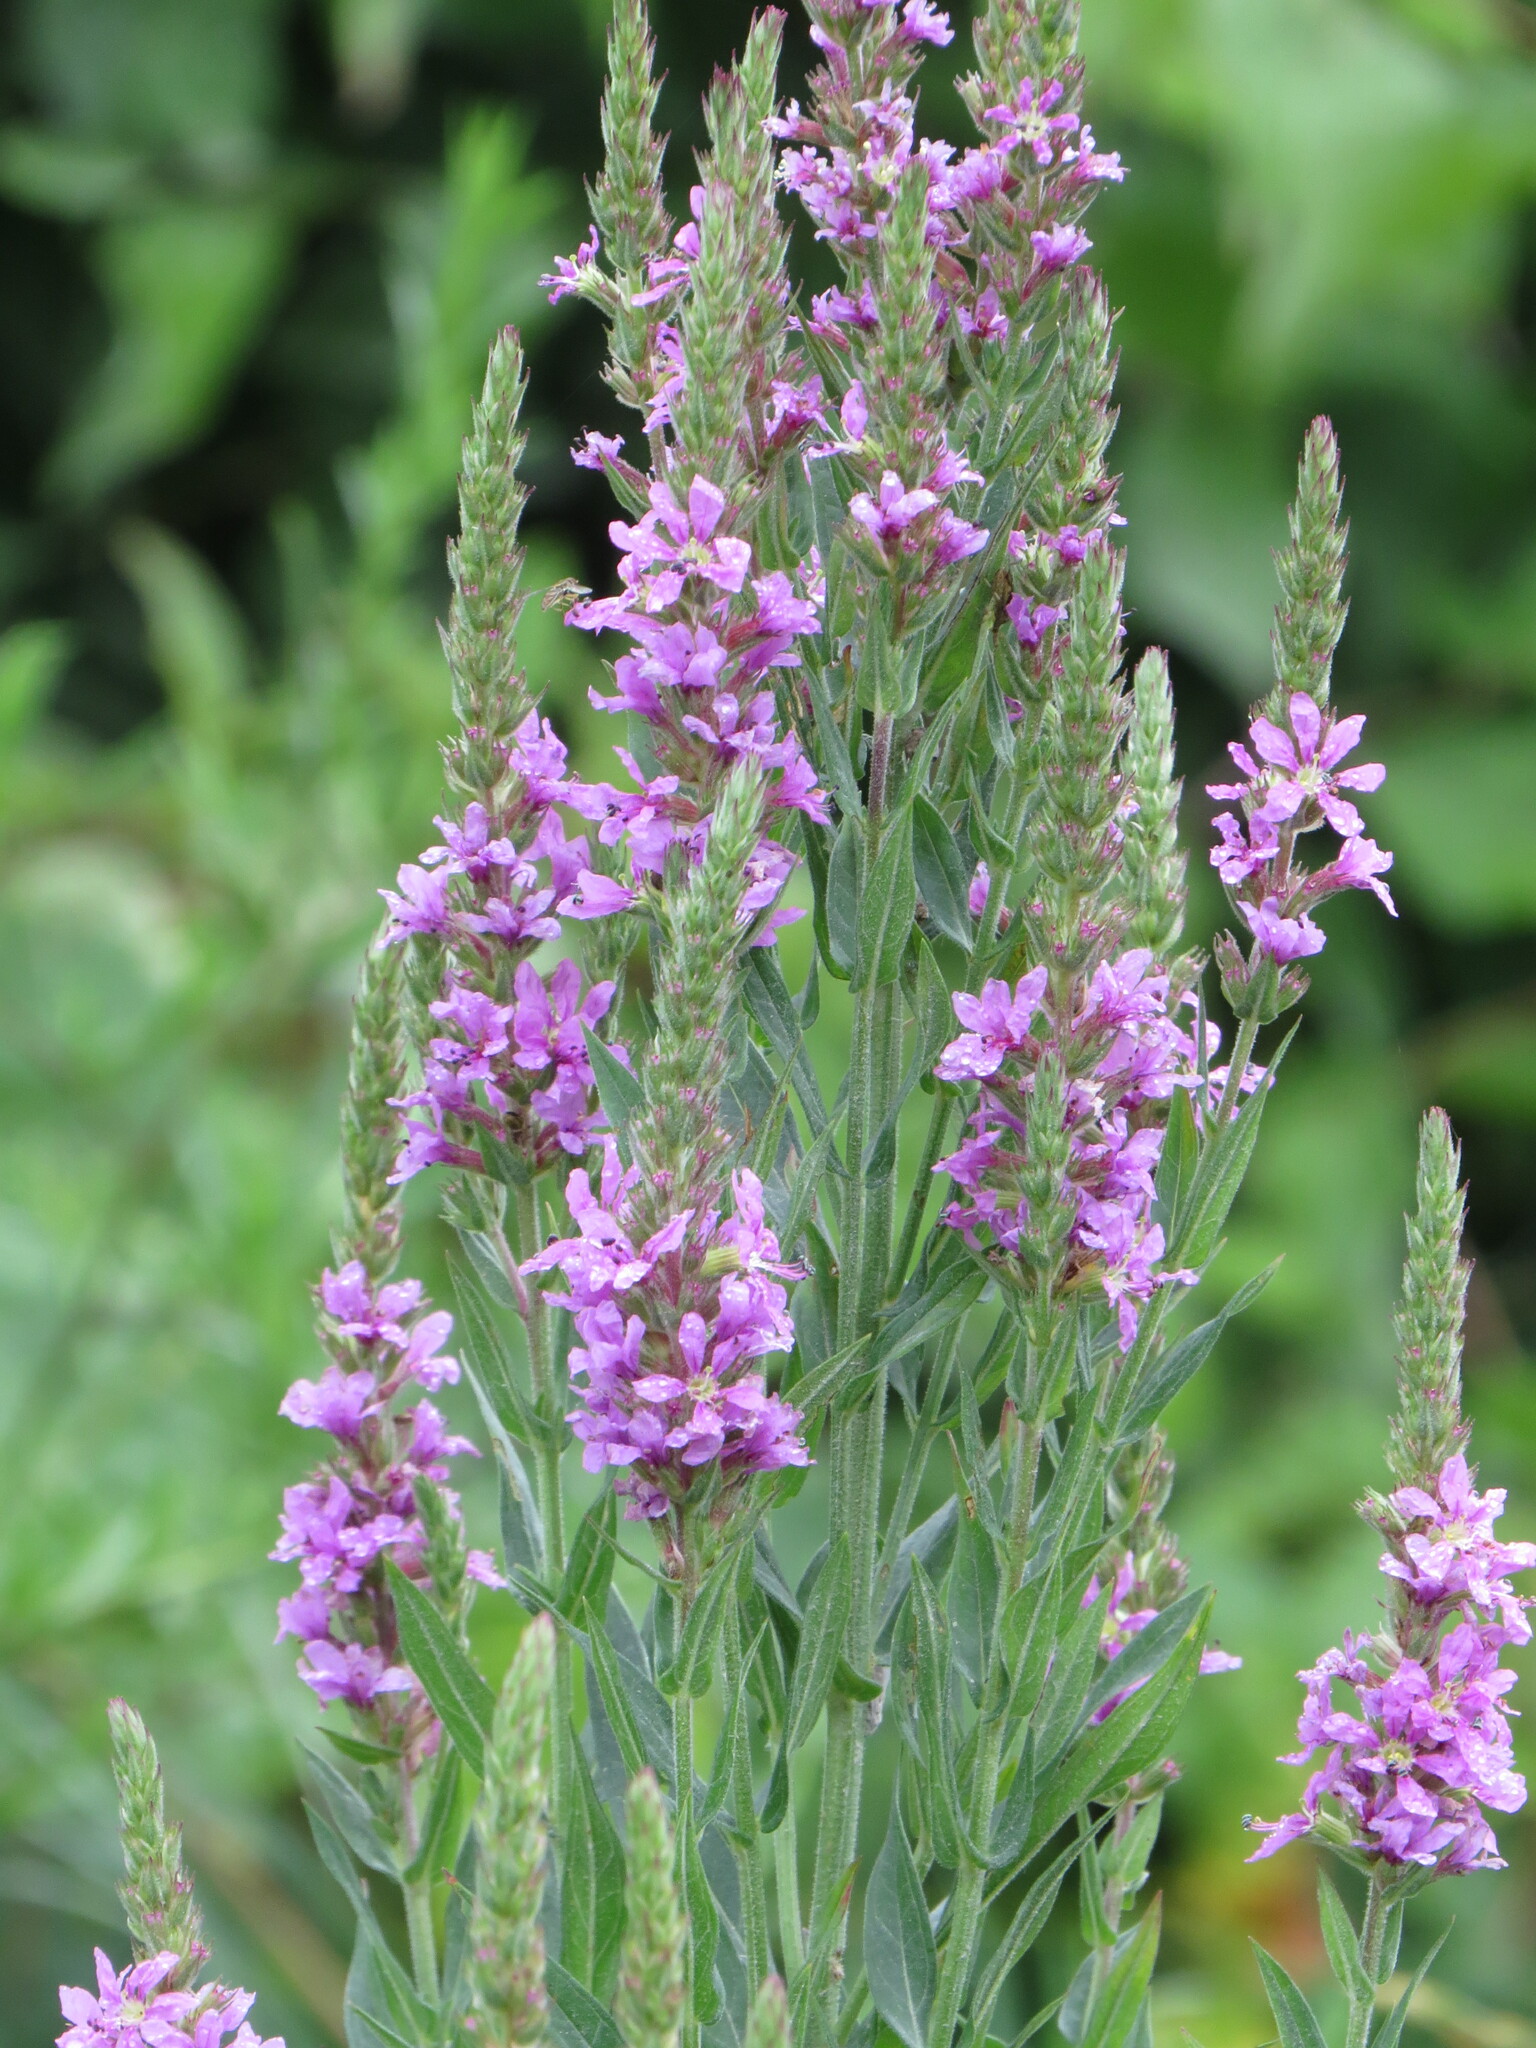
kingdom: Plantae
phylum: Tracheophyta
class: Magnoliopsida
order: Myrtales
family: Lythraceae
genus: Lythrum
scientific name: Lythrum salicaria
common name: Purple loosestrife
